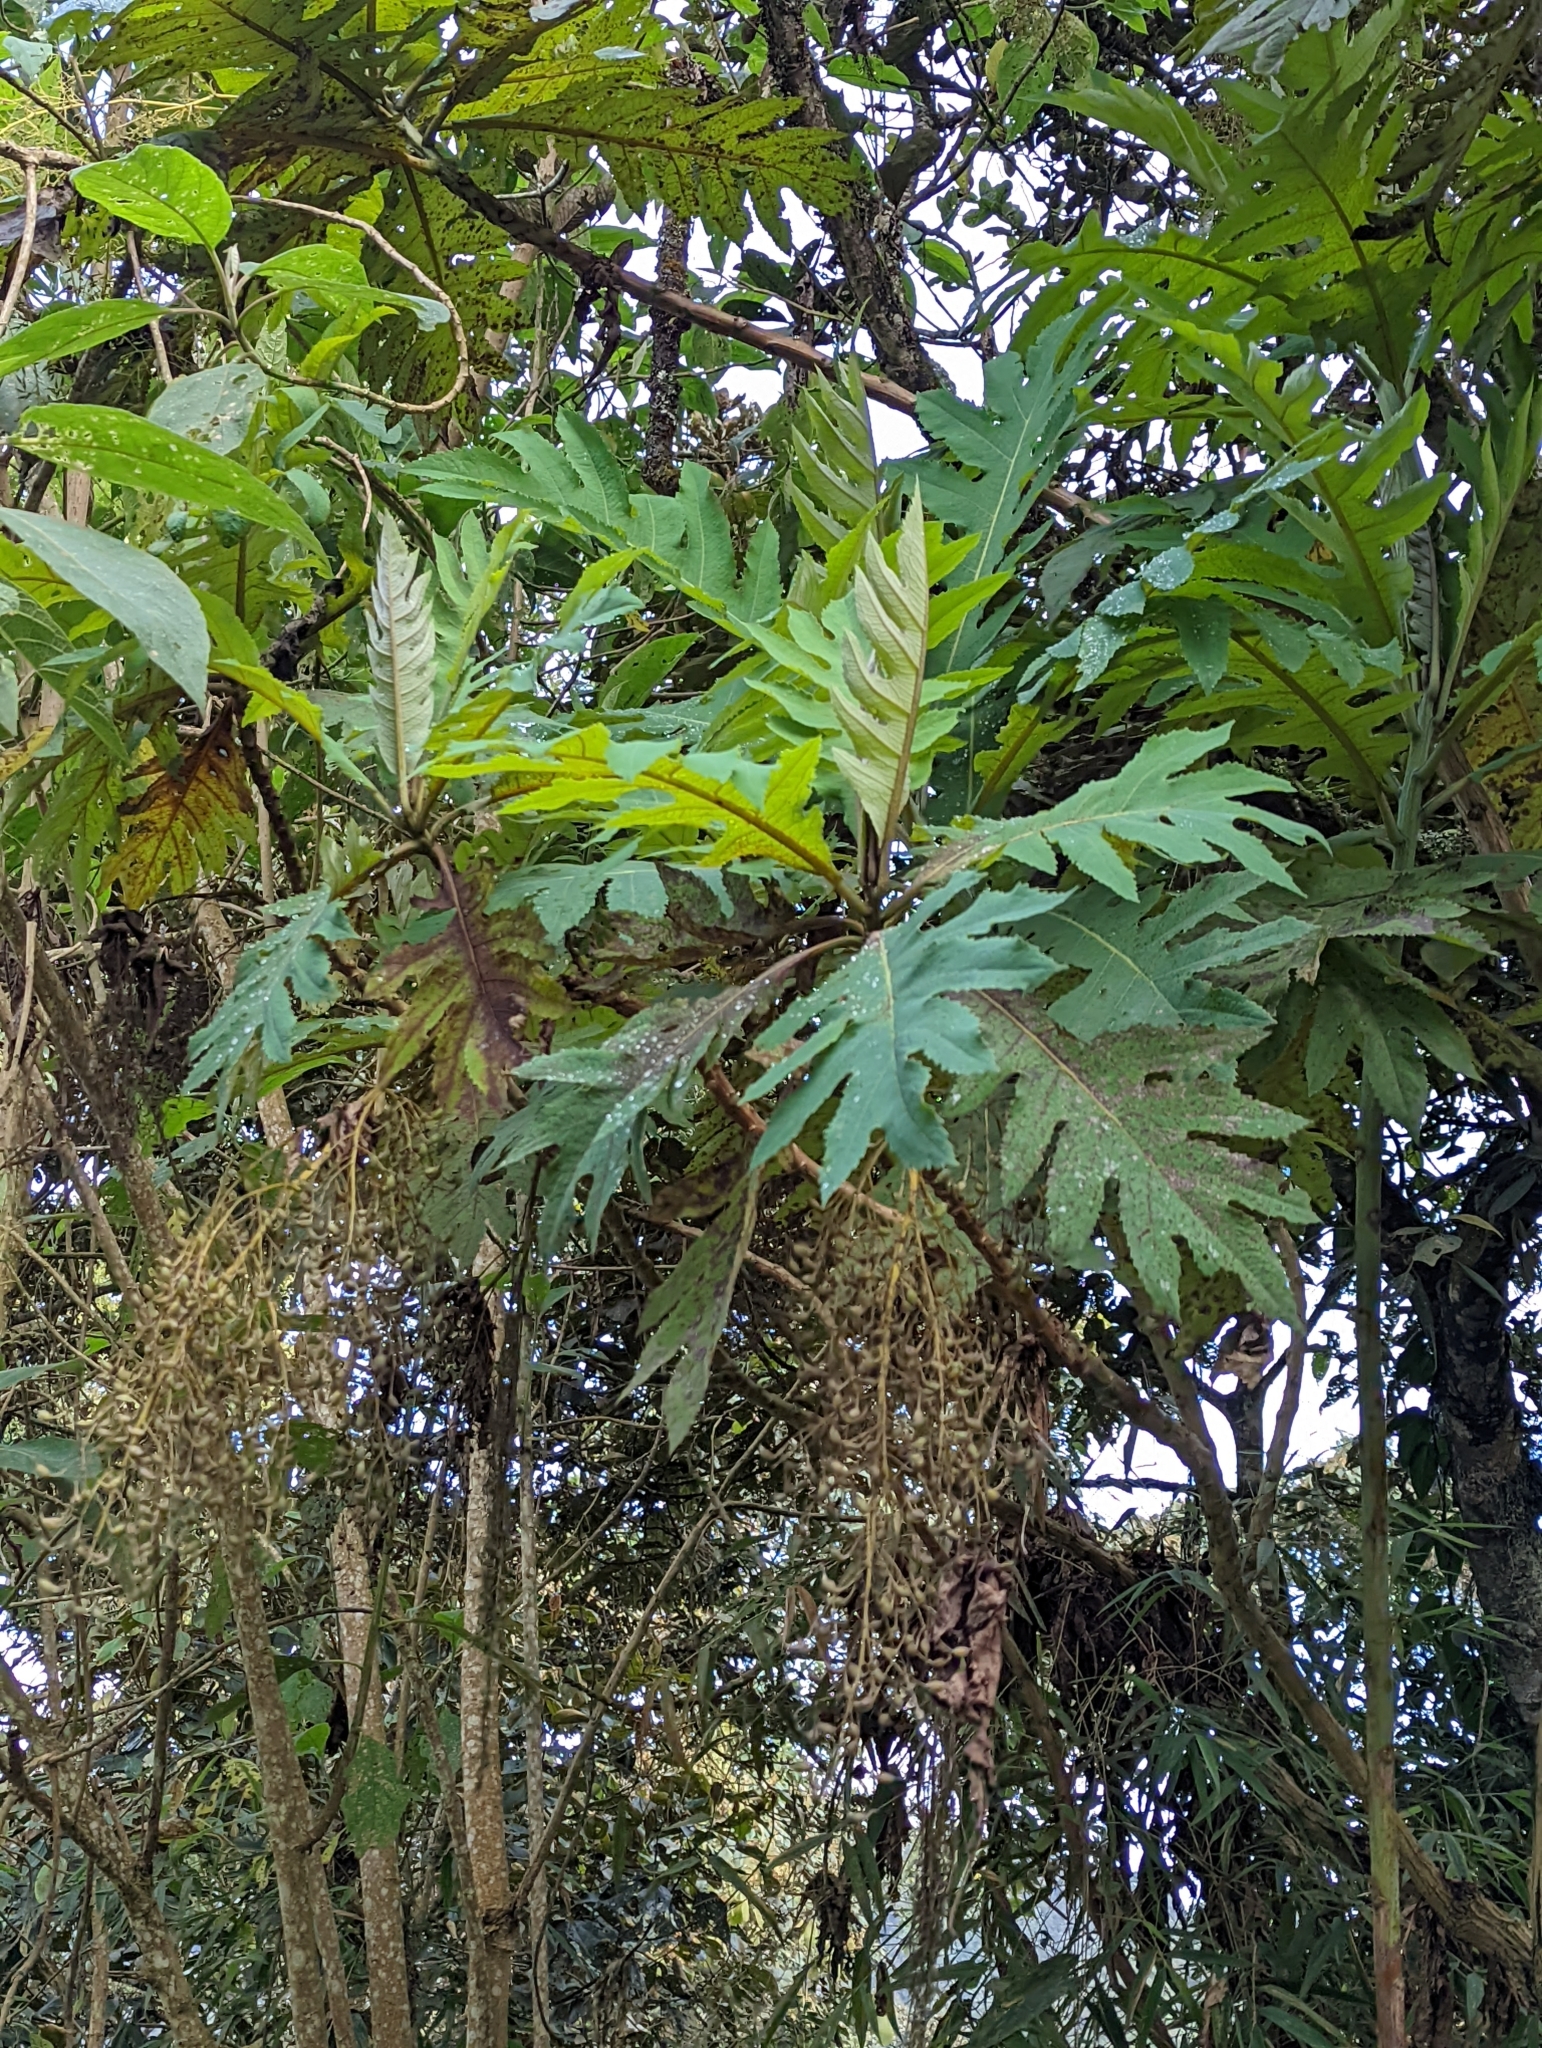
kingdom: Plantae
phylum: Tracheophyta
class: Magnoliopsida
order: Ranunculales
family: Papaveraceae
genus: Bocconia
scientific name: Bocconia frutescens
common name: Tree poppy
